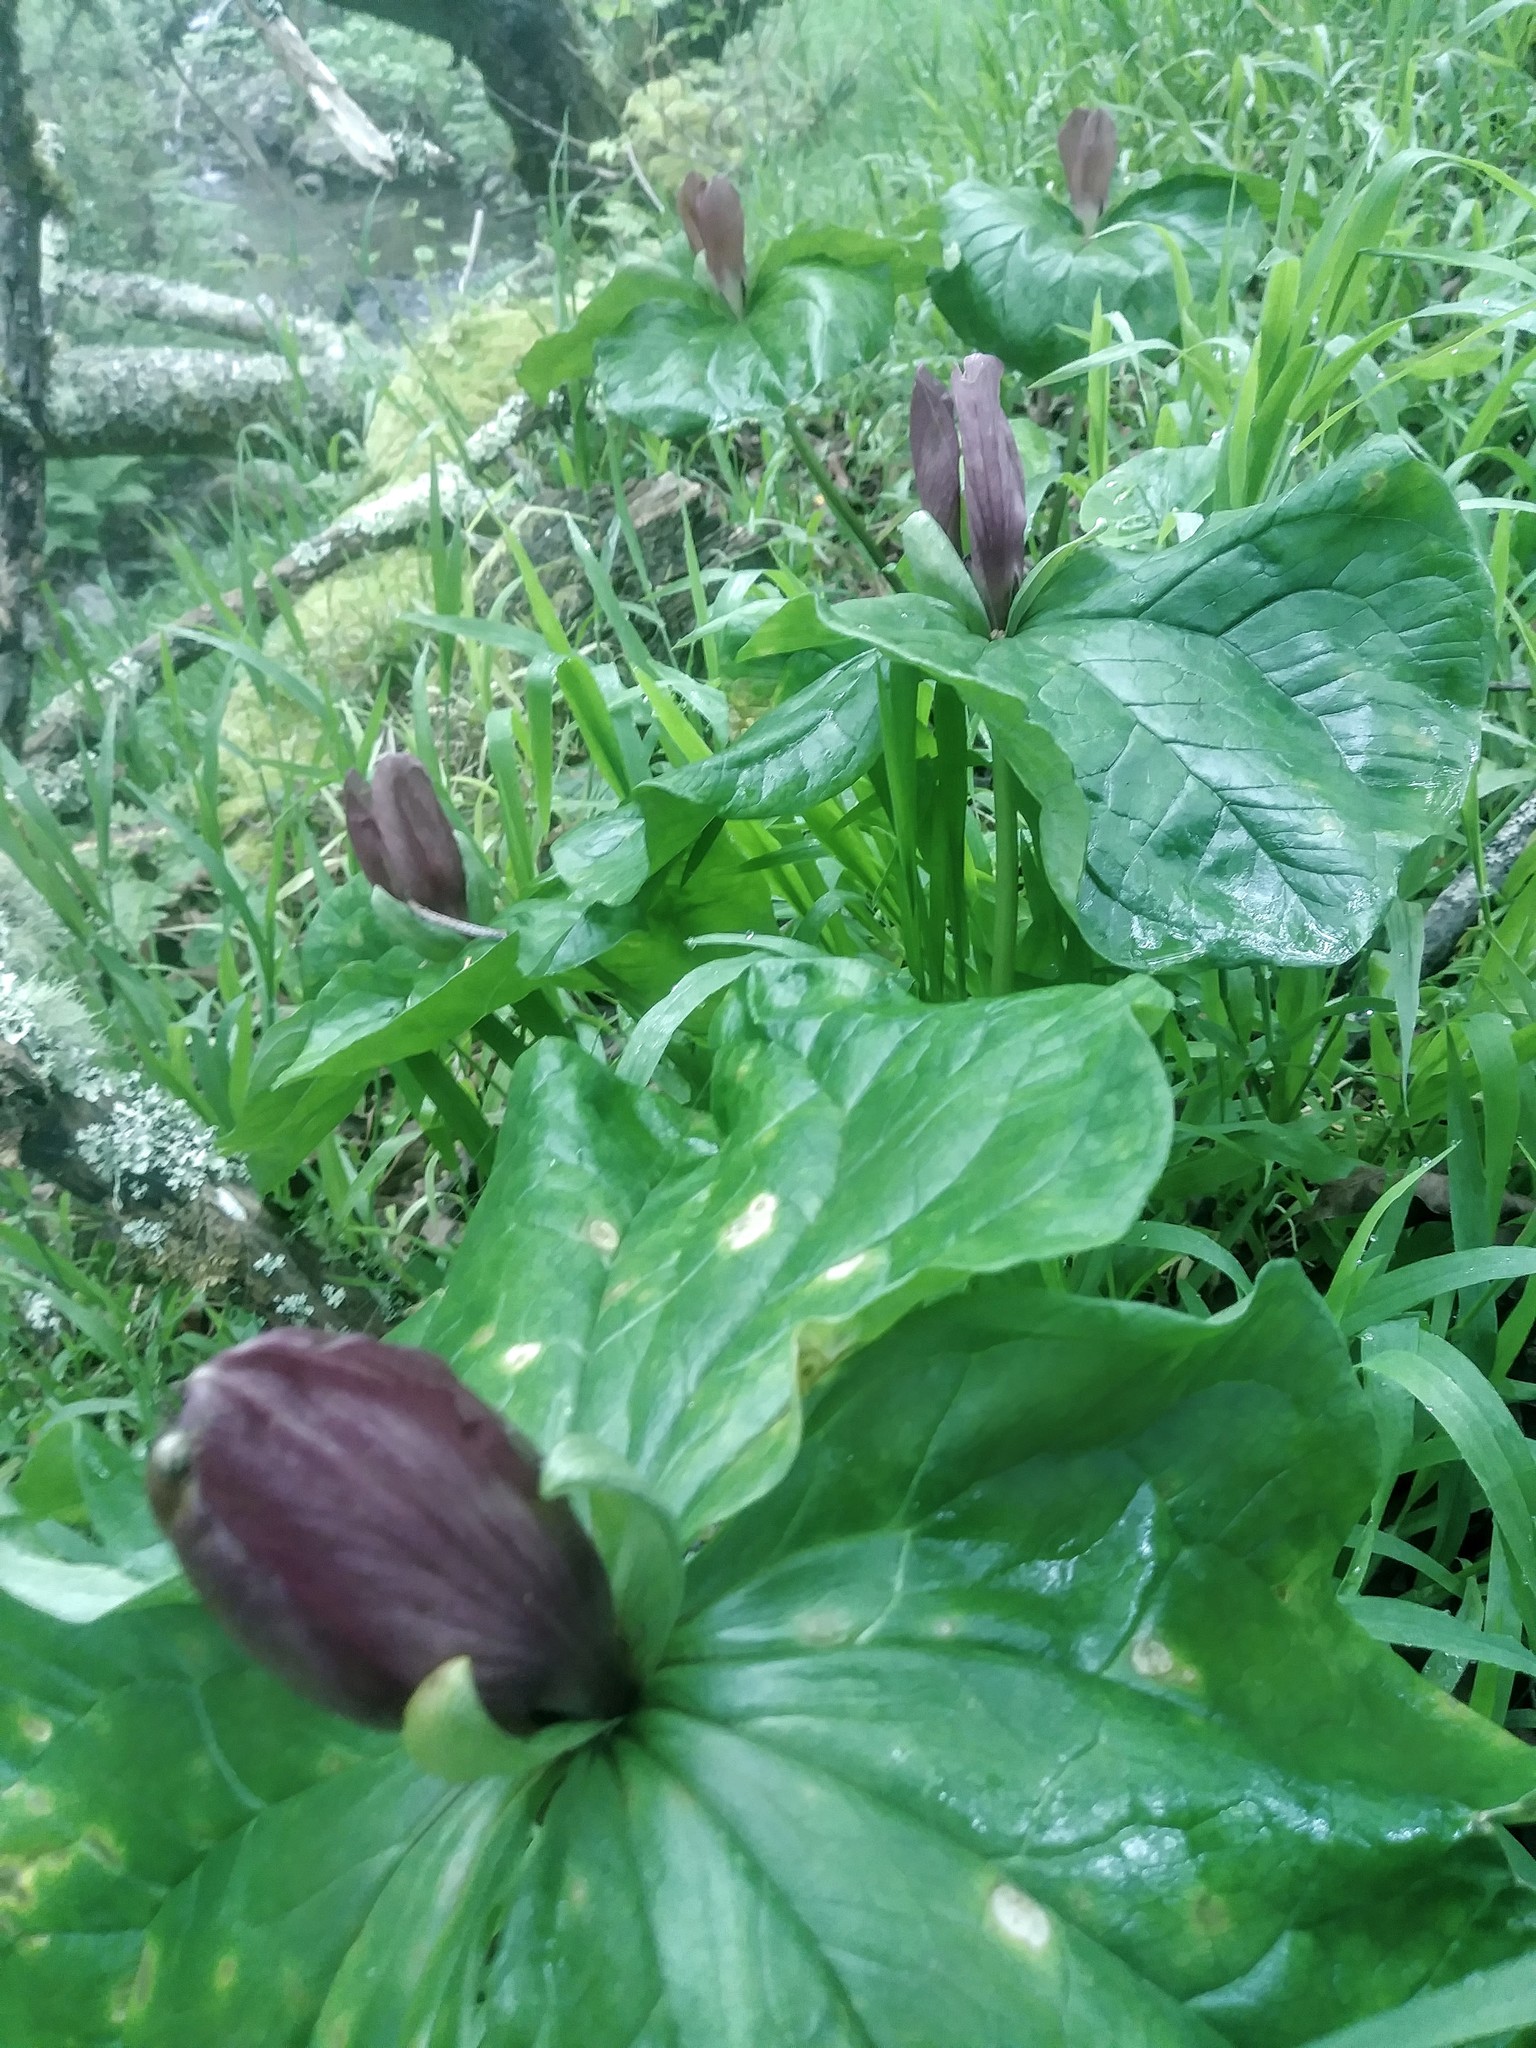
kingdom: Plantae
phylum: Tracheophyta
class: Liliopsida
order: Liliales
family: Melanthiaceae
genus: Trillium
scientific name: Trillium chloropetalum
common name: Giant trillium
